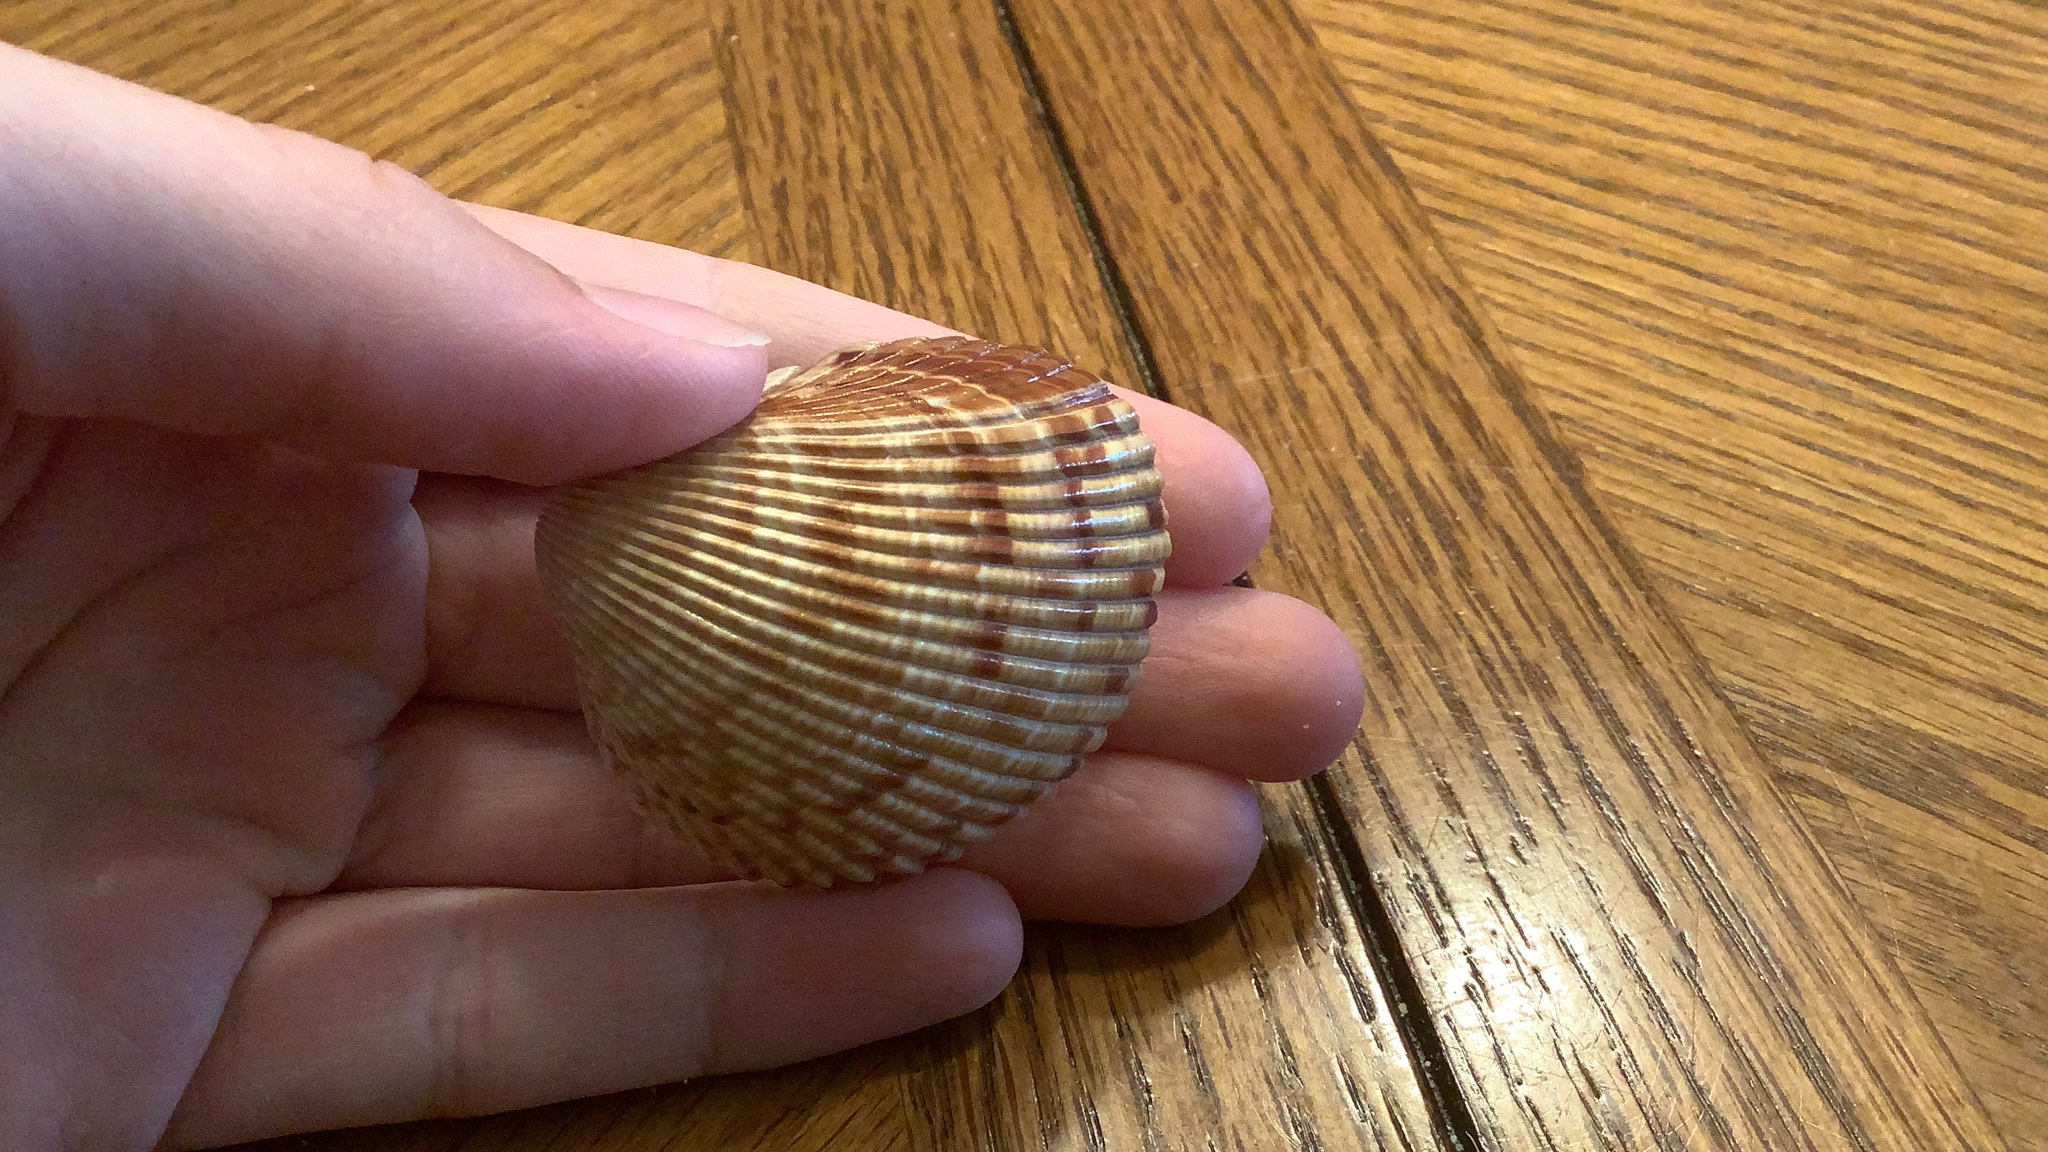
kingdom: Animalia
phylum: Mollusca
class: Bivalvia
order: Cardiida
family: Cardiidae
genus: Dinocardium
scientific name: Dinocardium robustum
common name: Atlantic giant cockle
